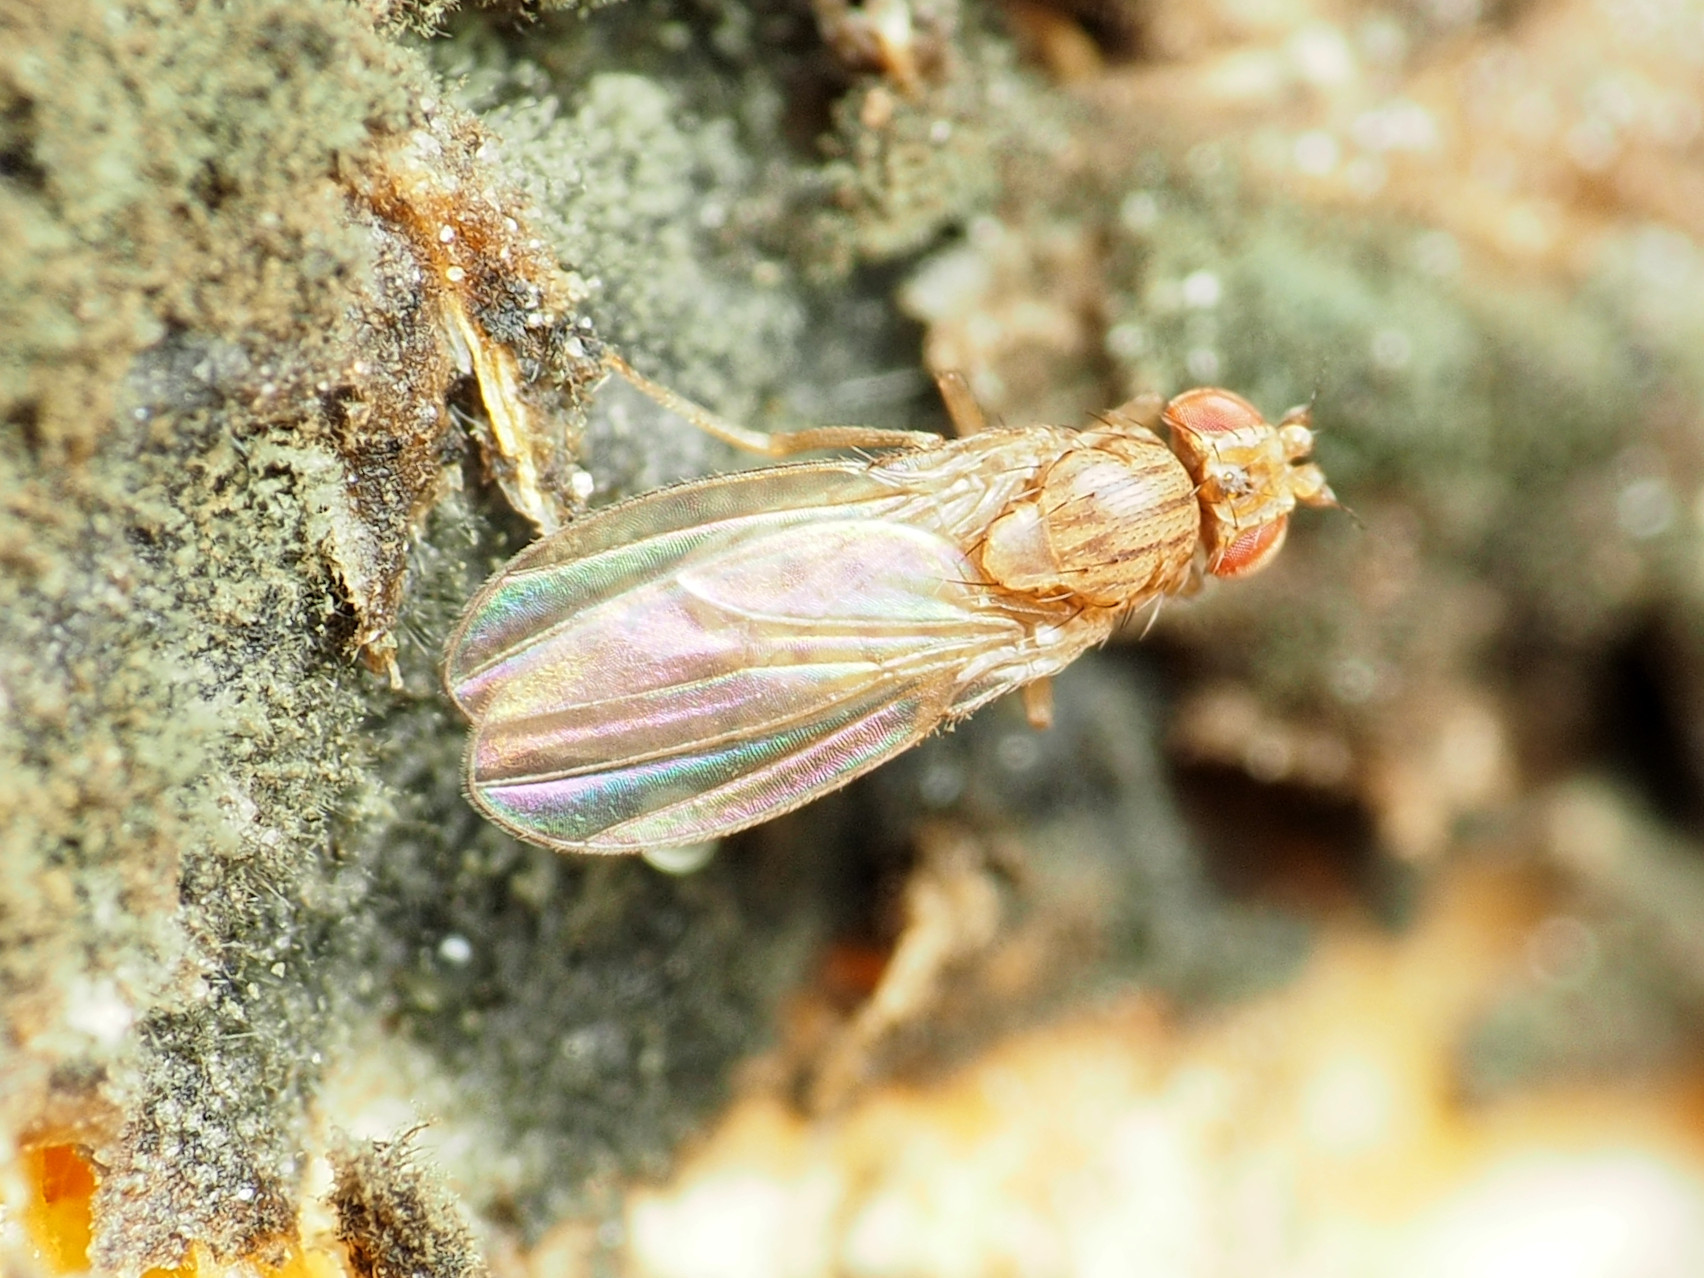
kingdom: Animalia
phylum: Arthropoda
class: Insecta
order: Diptera
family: Drosophilidae
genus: Drosophila
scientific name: Drosophila busckii
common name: Pomace fly
